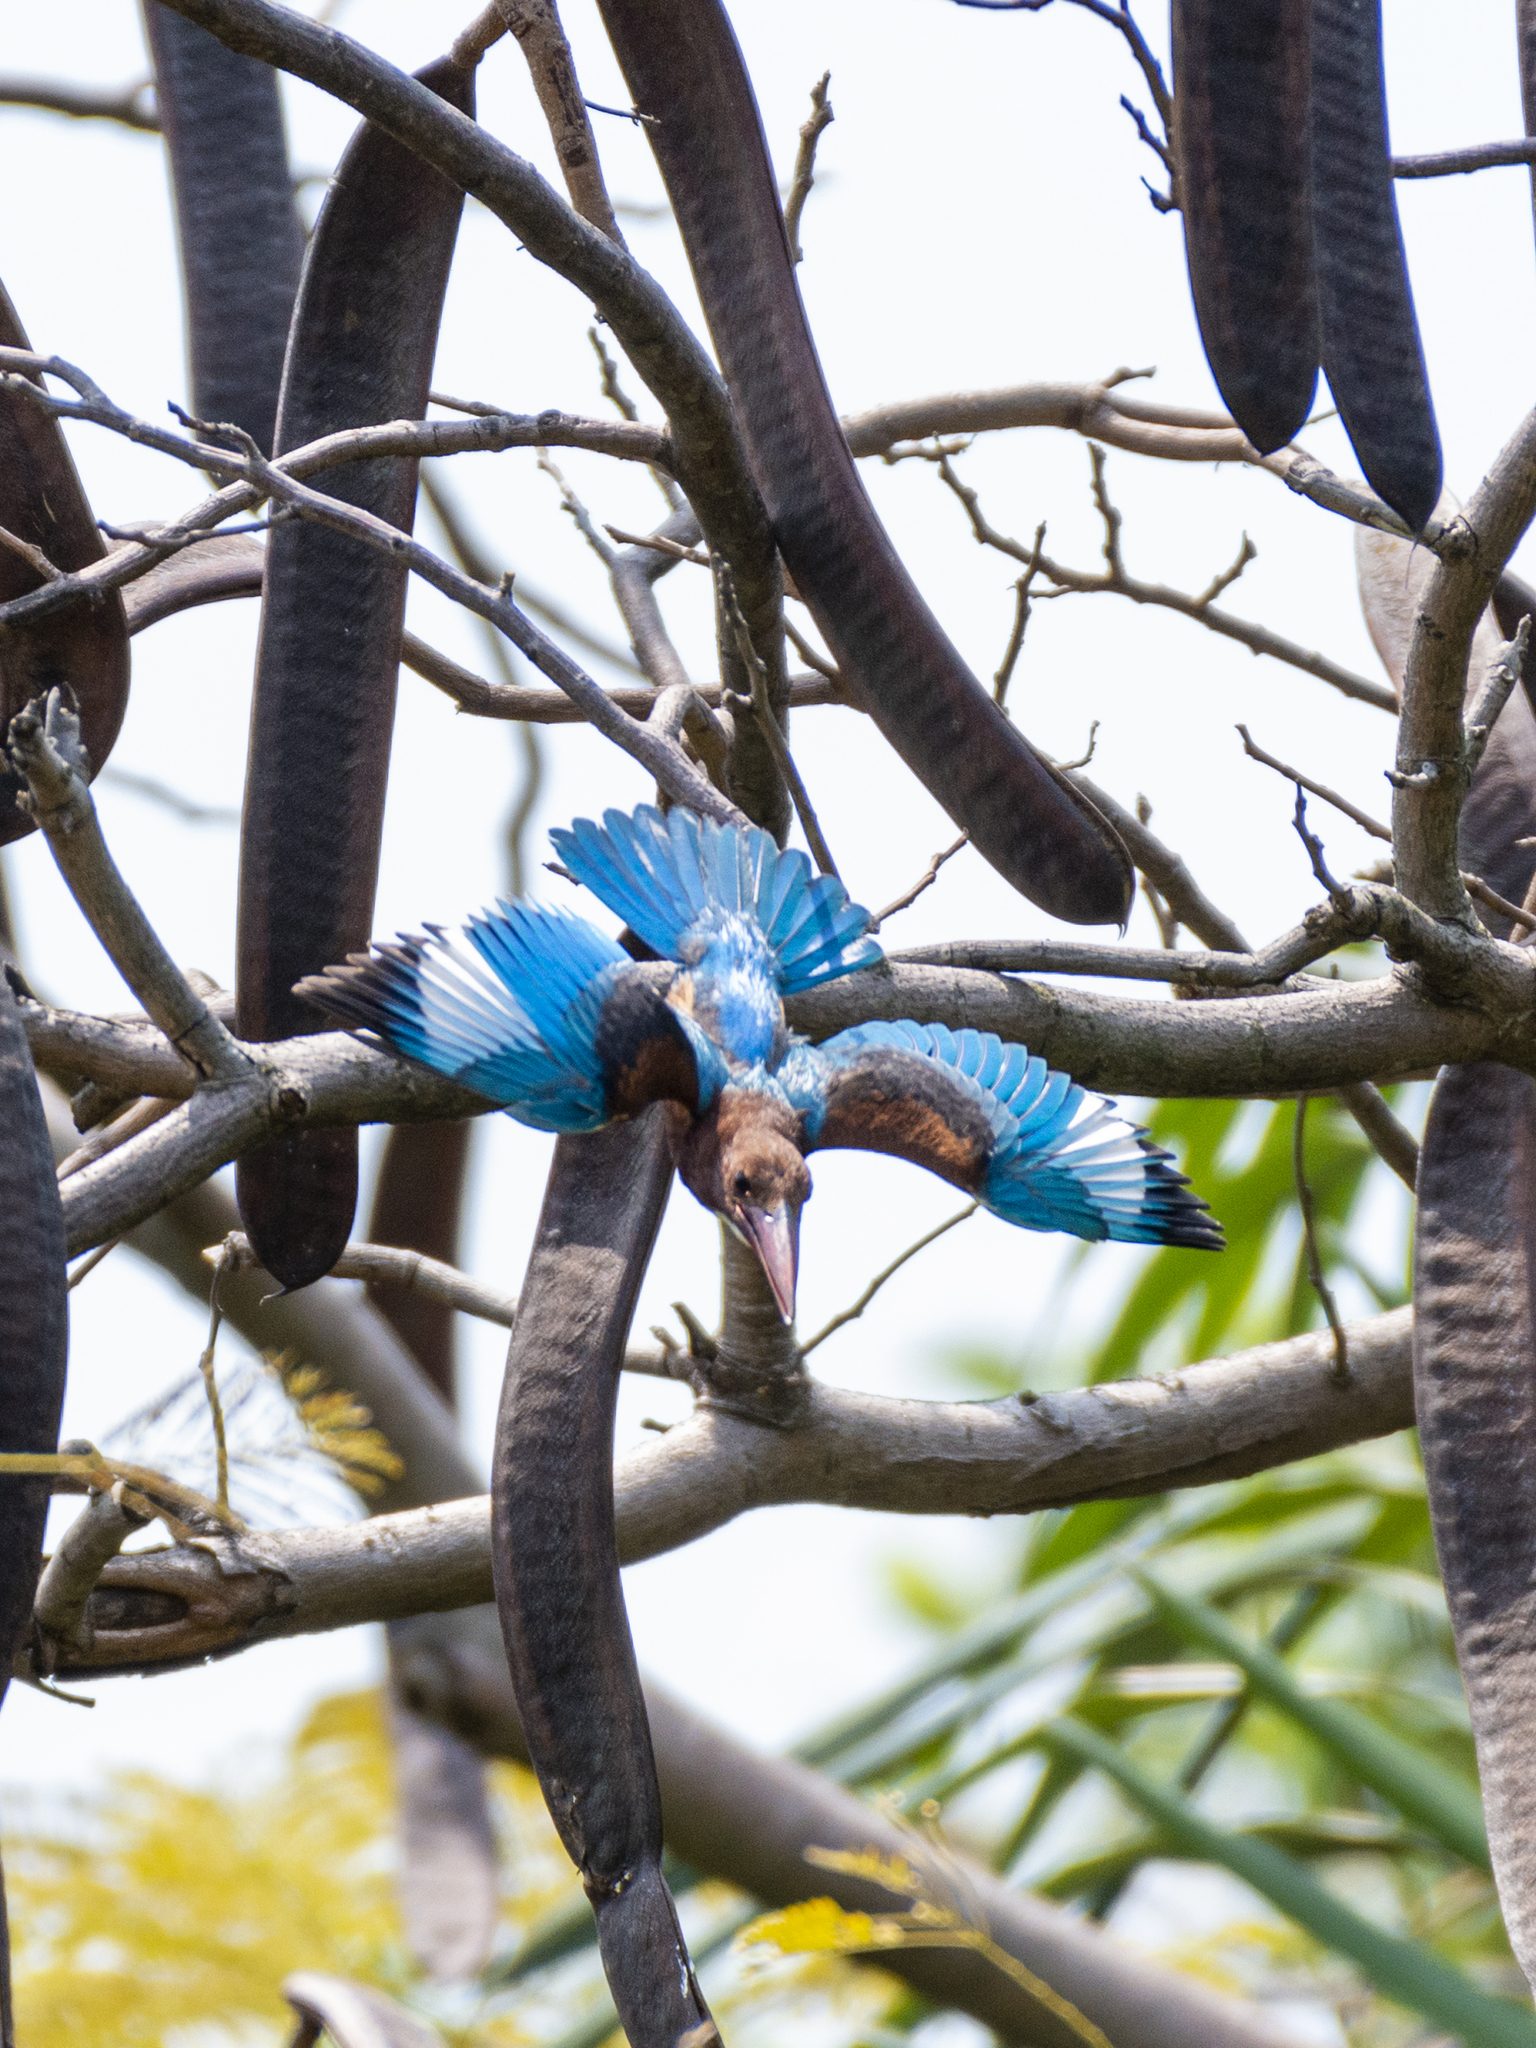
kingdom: Animalia
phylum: Chordata
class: Aves
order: Coraciiformes
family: Alcedinidae
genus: Halcyon
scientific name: Halcyon smyrnensis
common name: White-throated kingfisher
